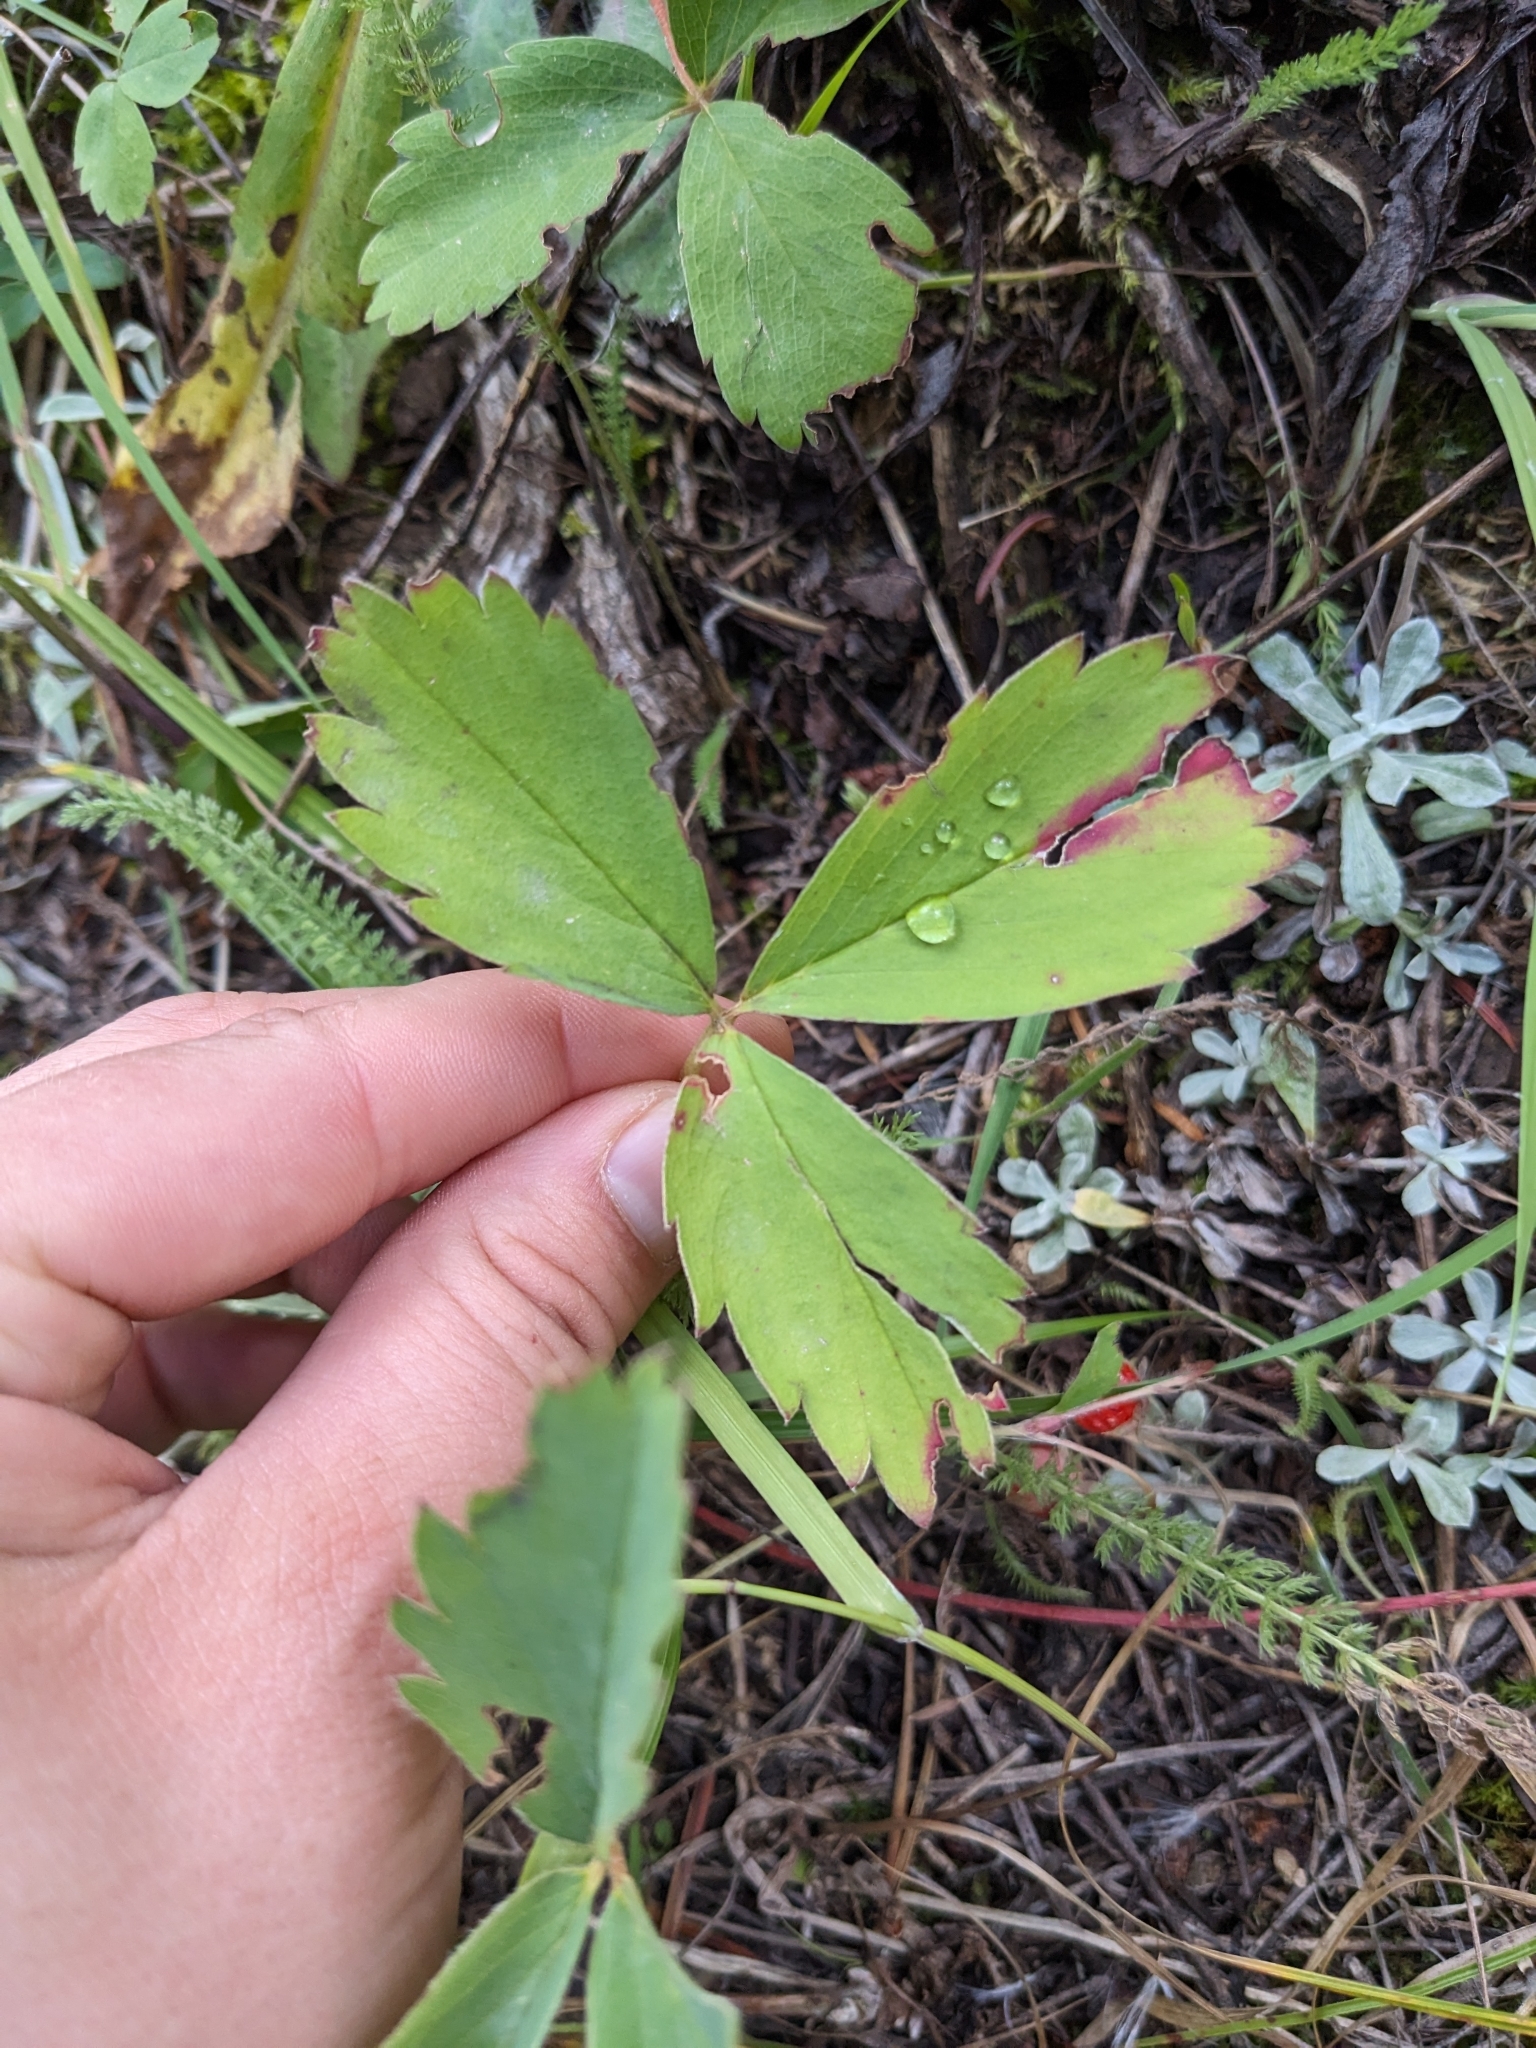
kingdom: Plantae
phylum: Tracheophyta
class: Magnoliopsida
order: Rosales
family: Rosaceae
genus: Fragaria
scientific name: Fragaria virginiana
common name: Thickleaved wild strawberry
